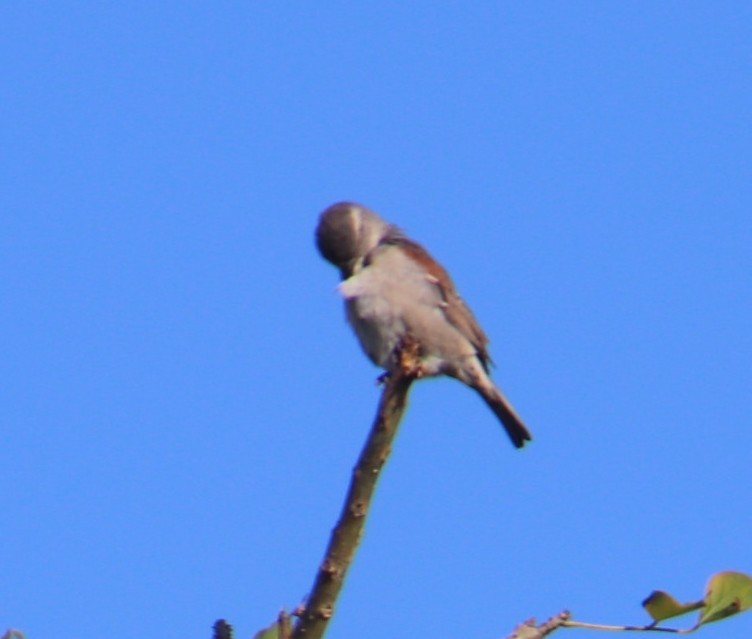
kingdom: Animalia
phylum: Chordata
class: Aves
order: Passeriformes
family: Passeridae
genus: Passer
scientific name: Passer melanurus
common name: Cape sparrow
